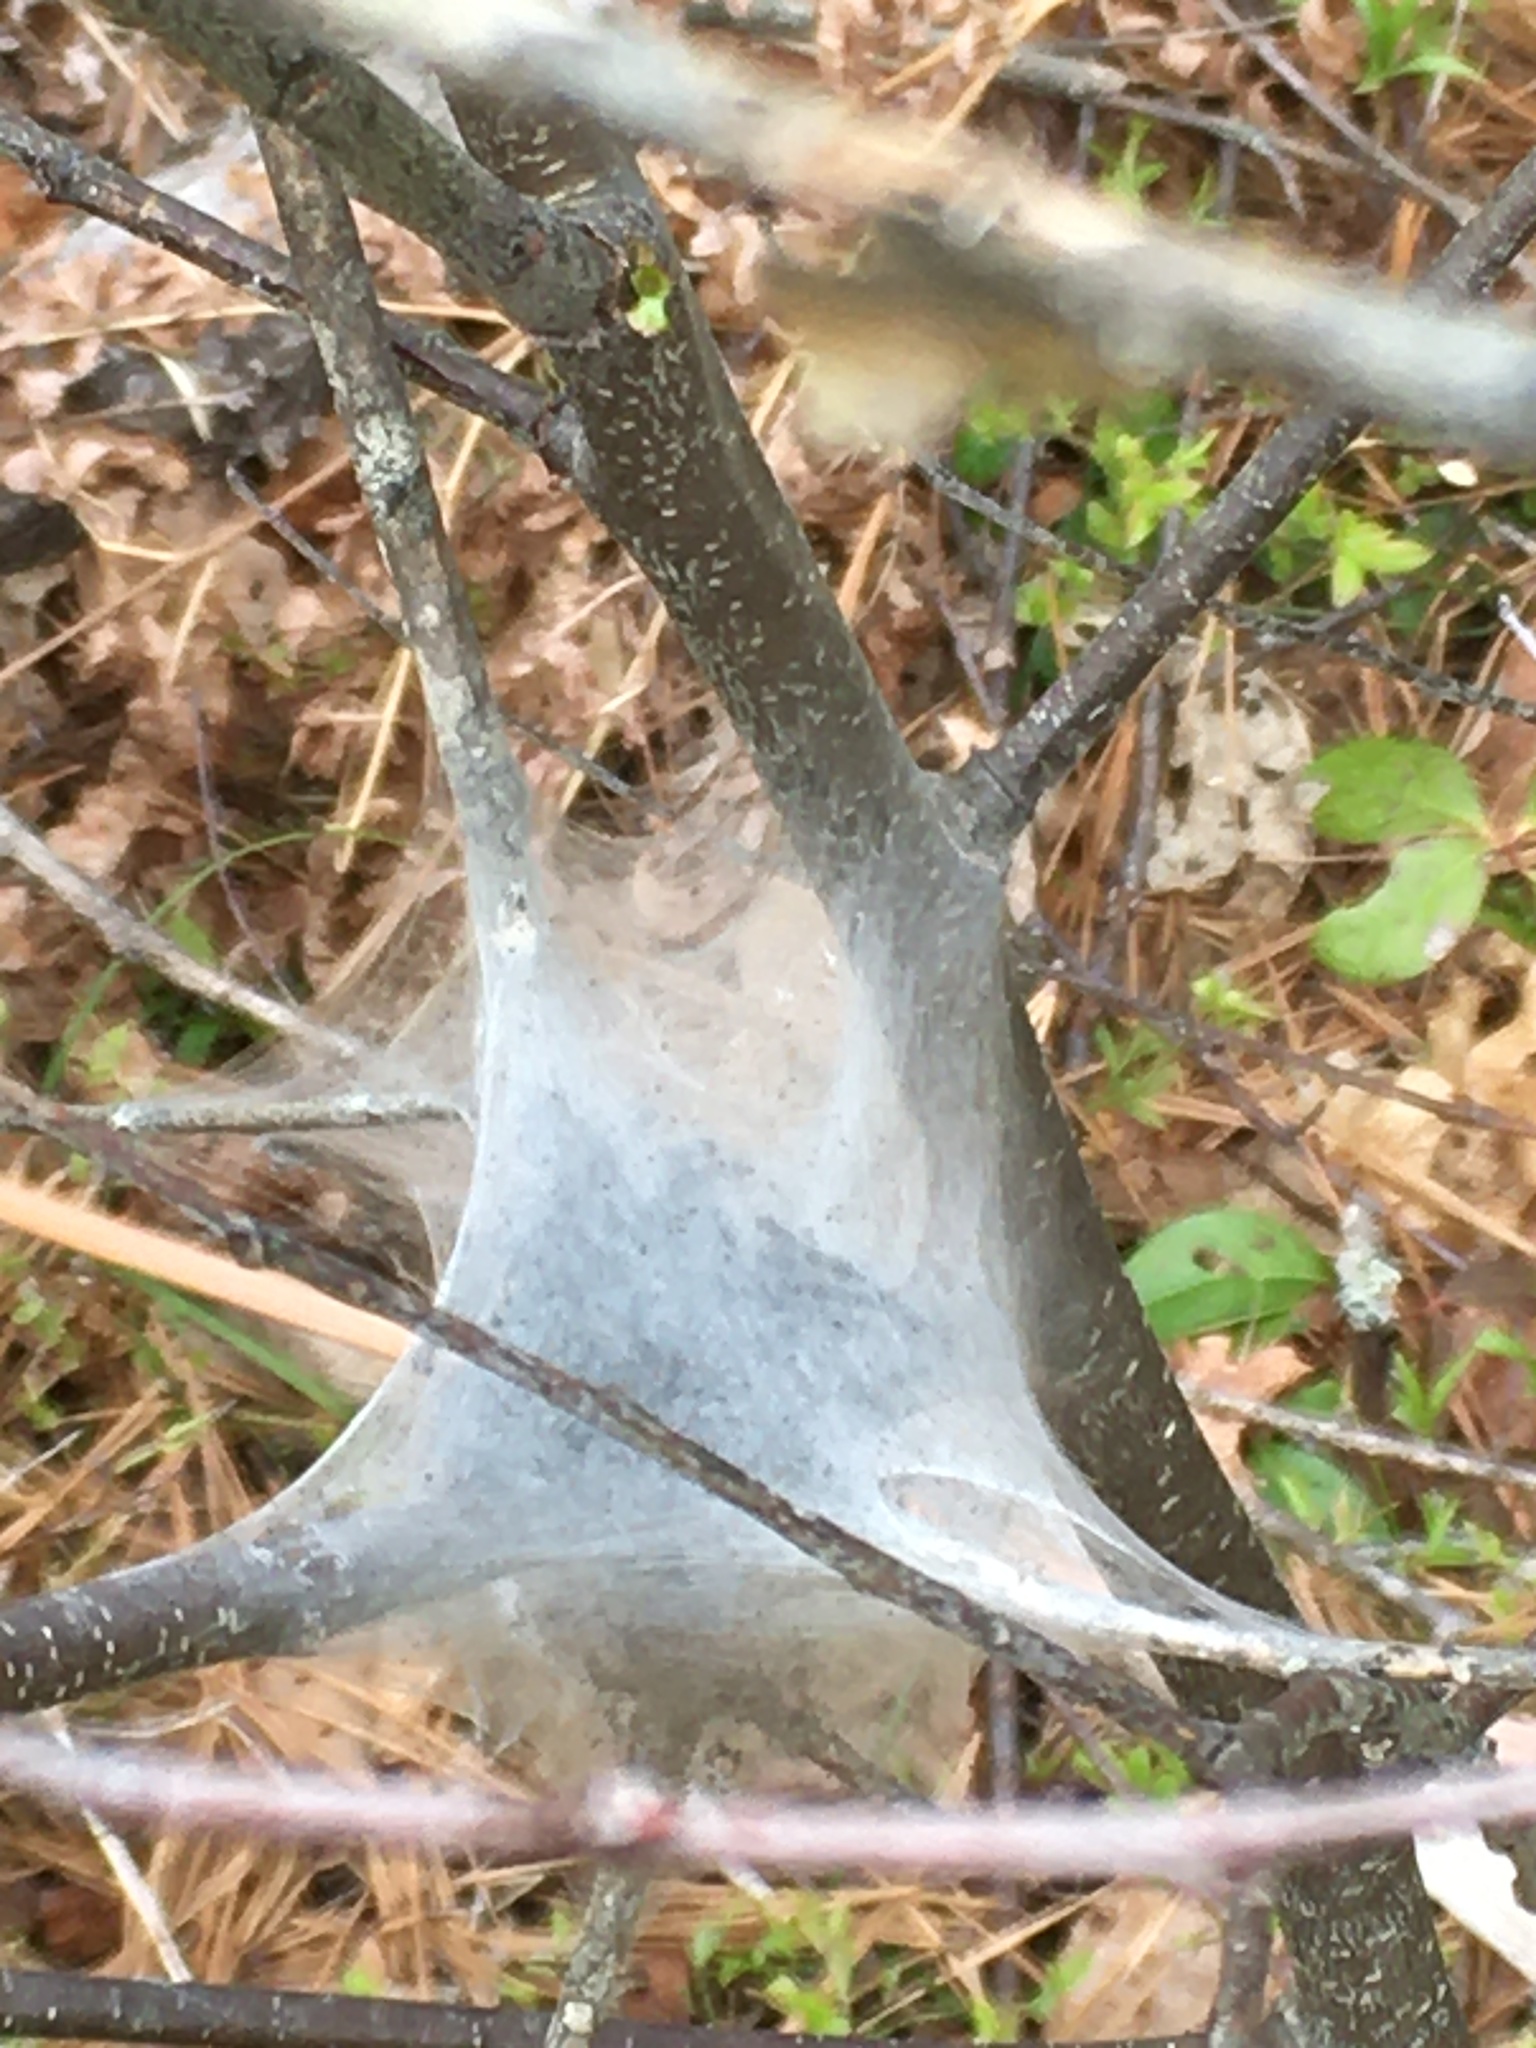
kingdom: Animalia
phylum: Arthropoda
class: Insecta
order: Lepidoptera
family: Lasiocampidae
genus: Malacosoma
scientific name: Malacosoma americana
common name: Eastern tent caterpillar moth
